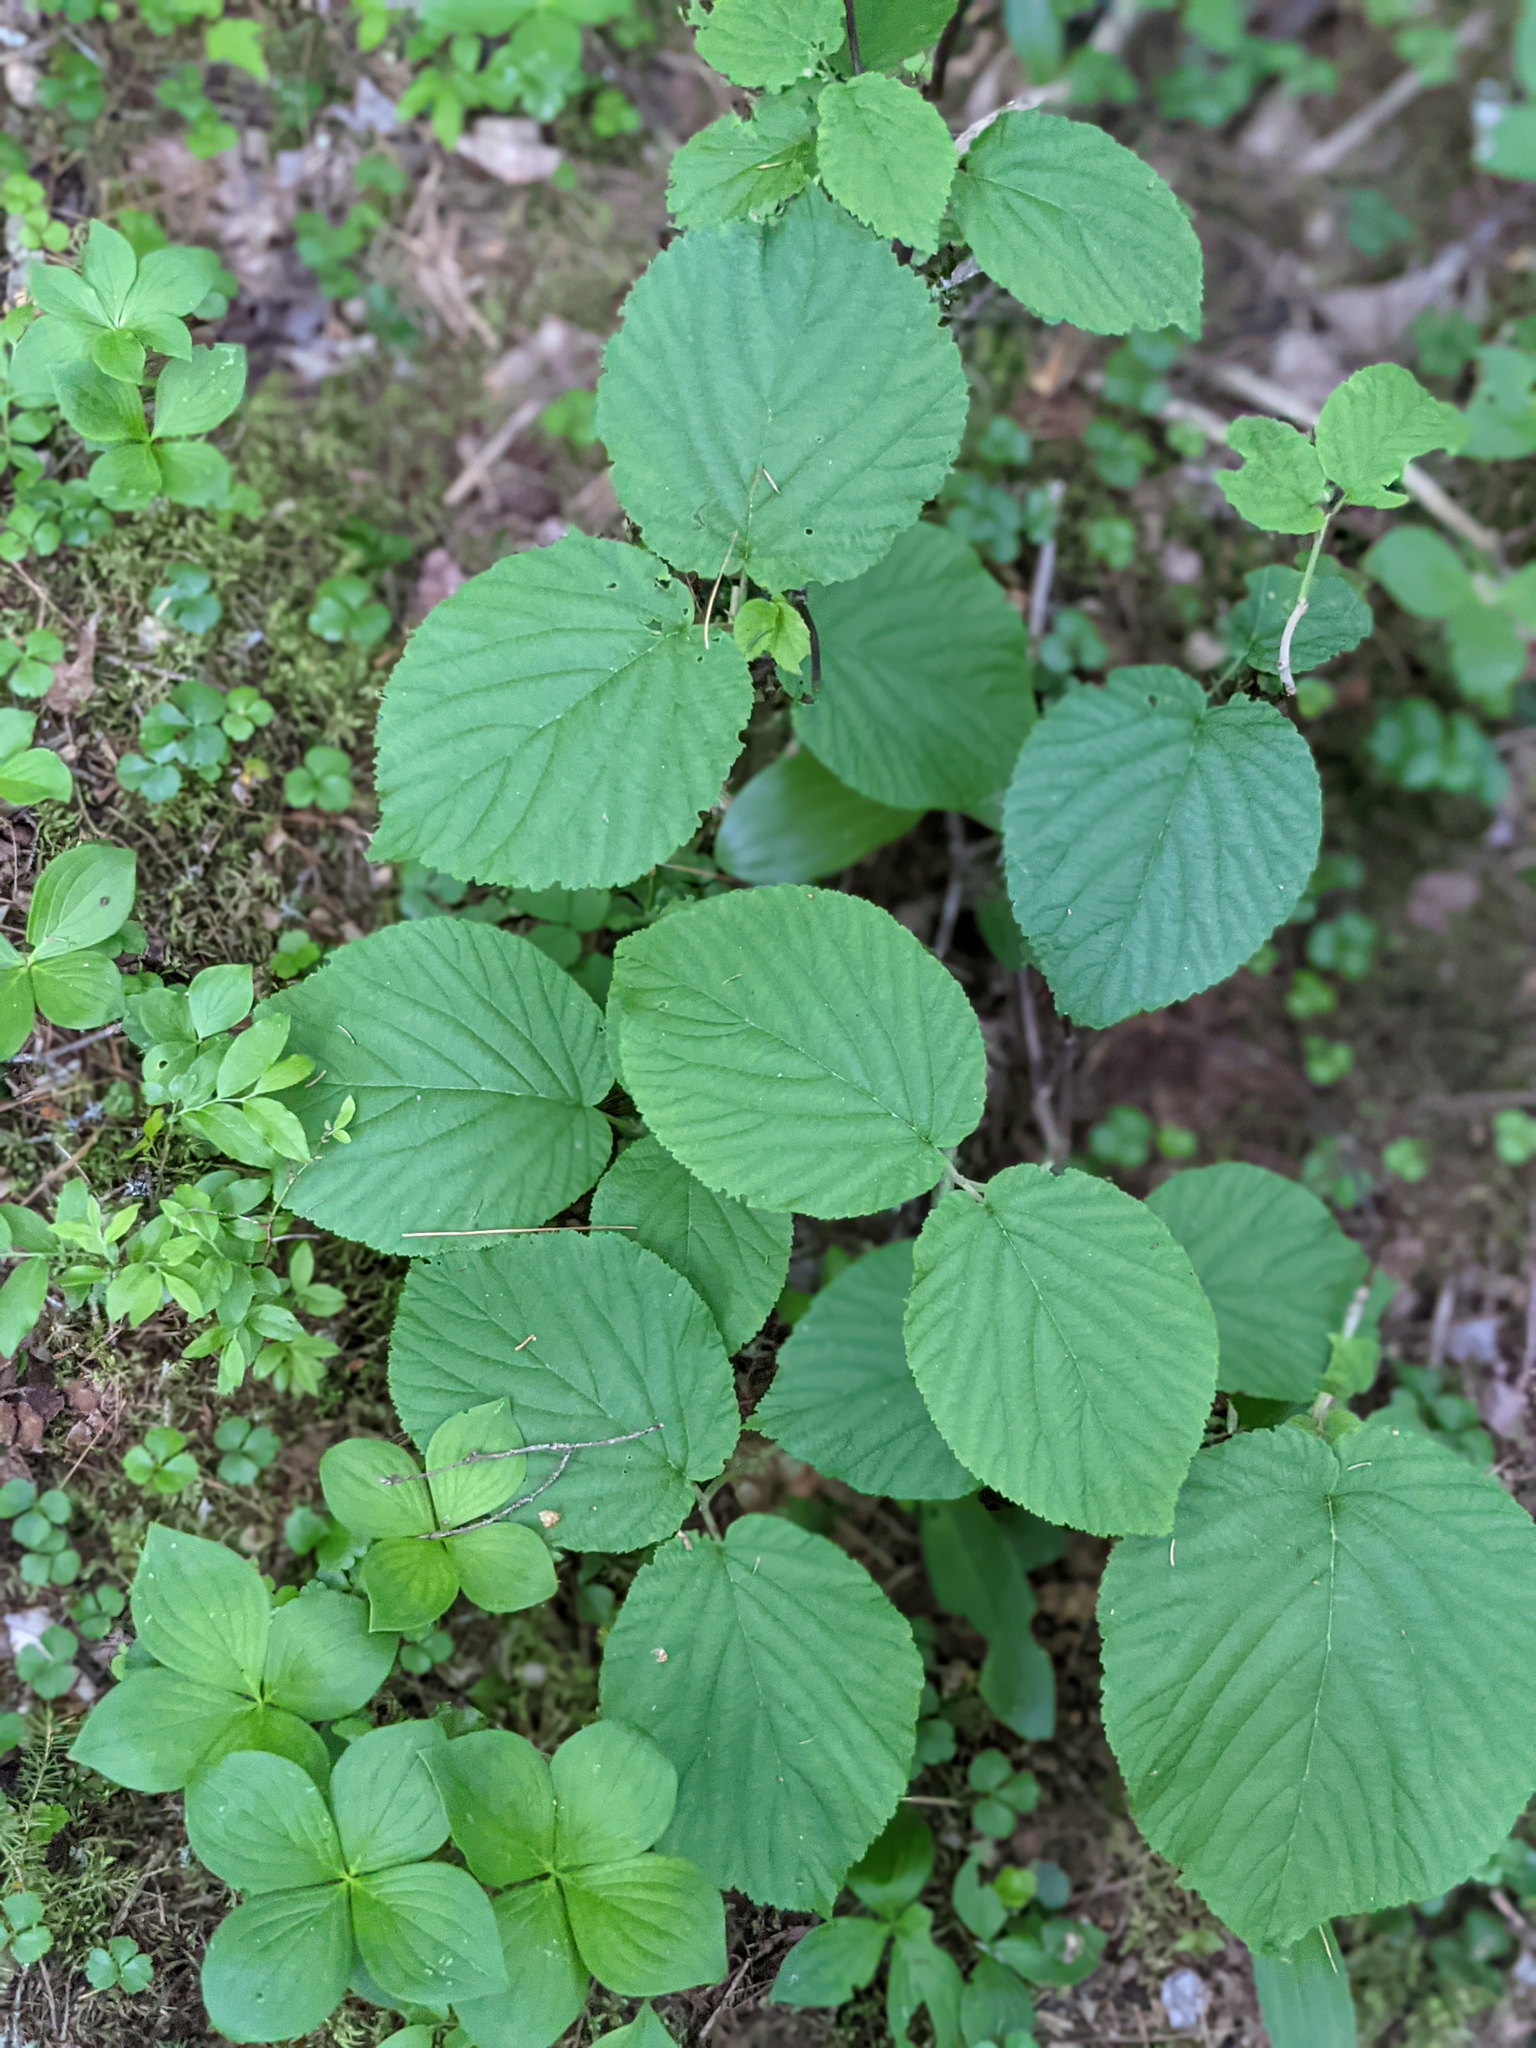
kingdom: Plantae
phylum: Tracheophyta
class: Magnoliopsida
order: Dipsacales
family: Viburnaceae
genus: Viburnum
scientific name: Viburnum lantanoides
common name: Hobblebush
